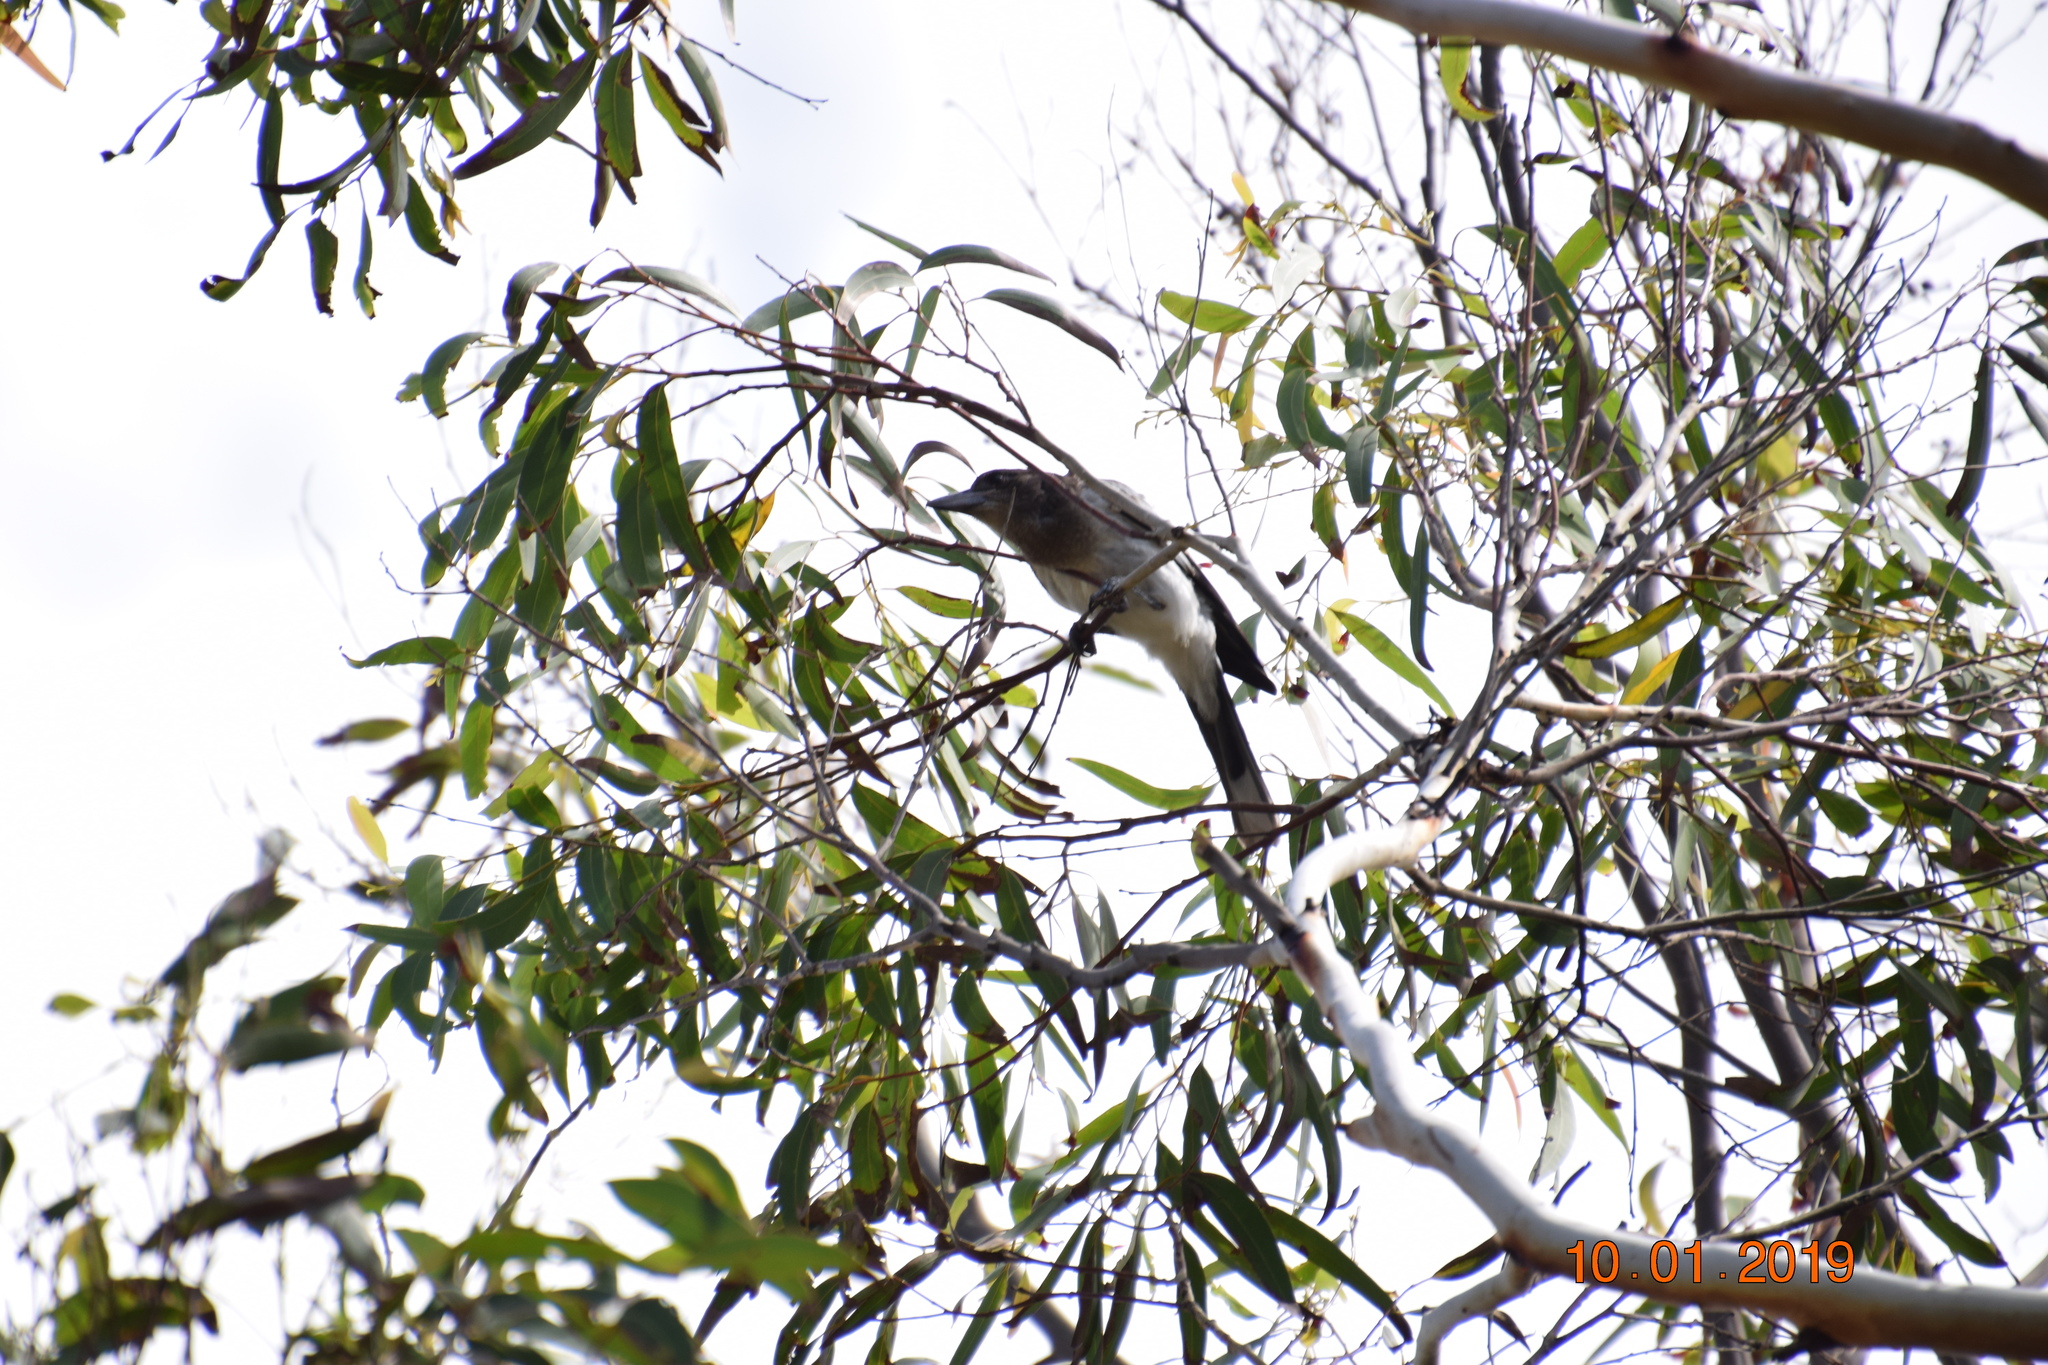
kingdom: Animalia
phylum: Chordata
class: Aves
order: Passeriformes
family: Cracticidae
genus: Cracticus
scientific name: Cracticus nigrogularis
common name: Pied butcherbird
